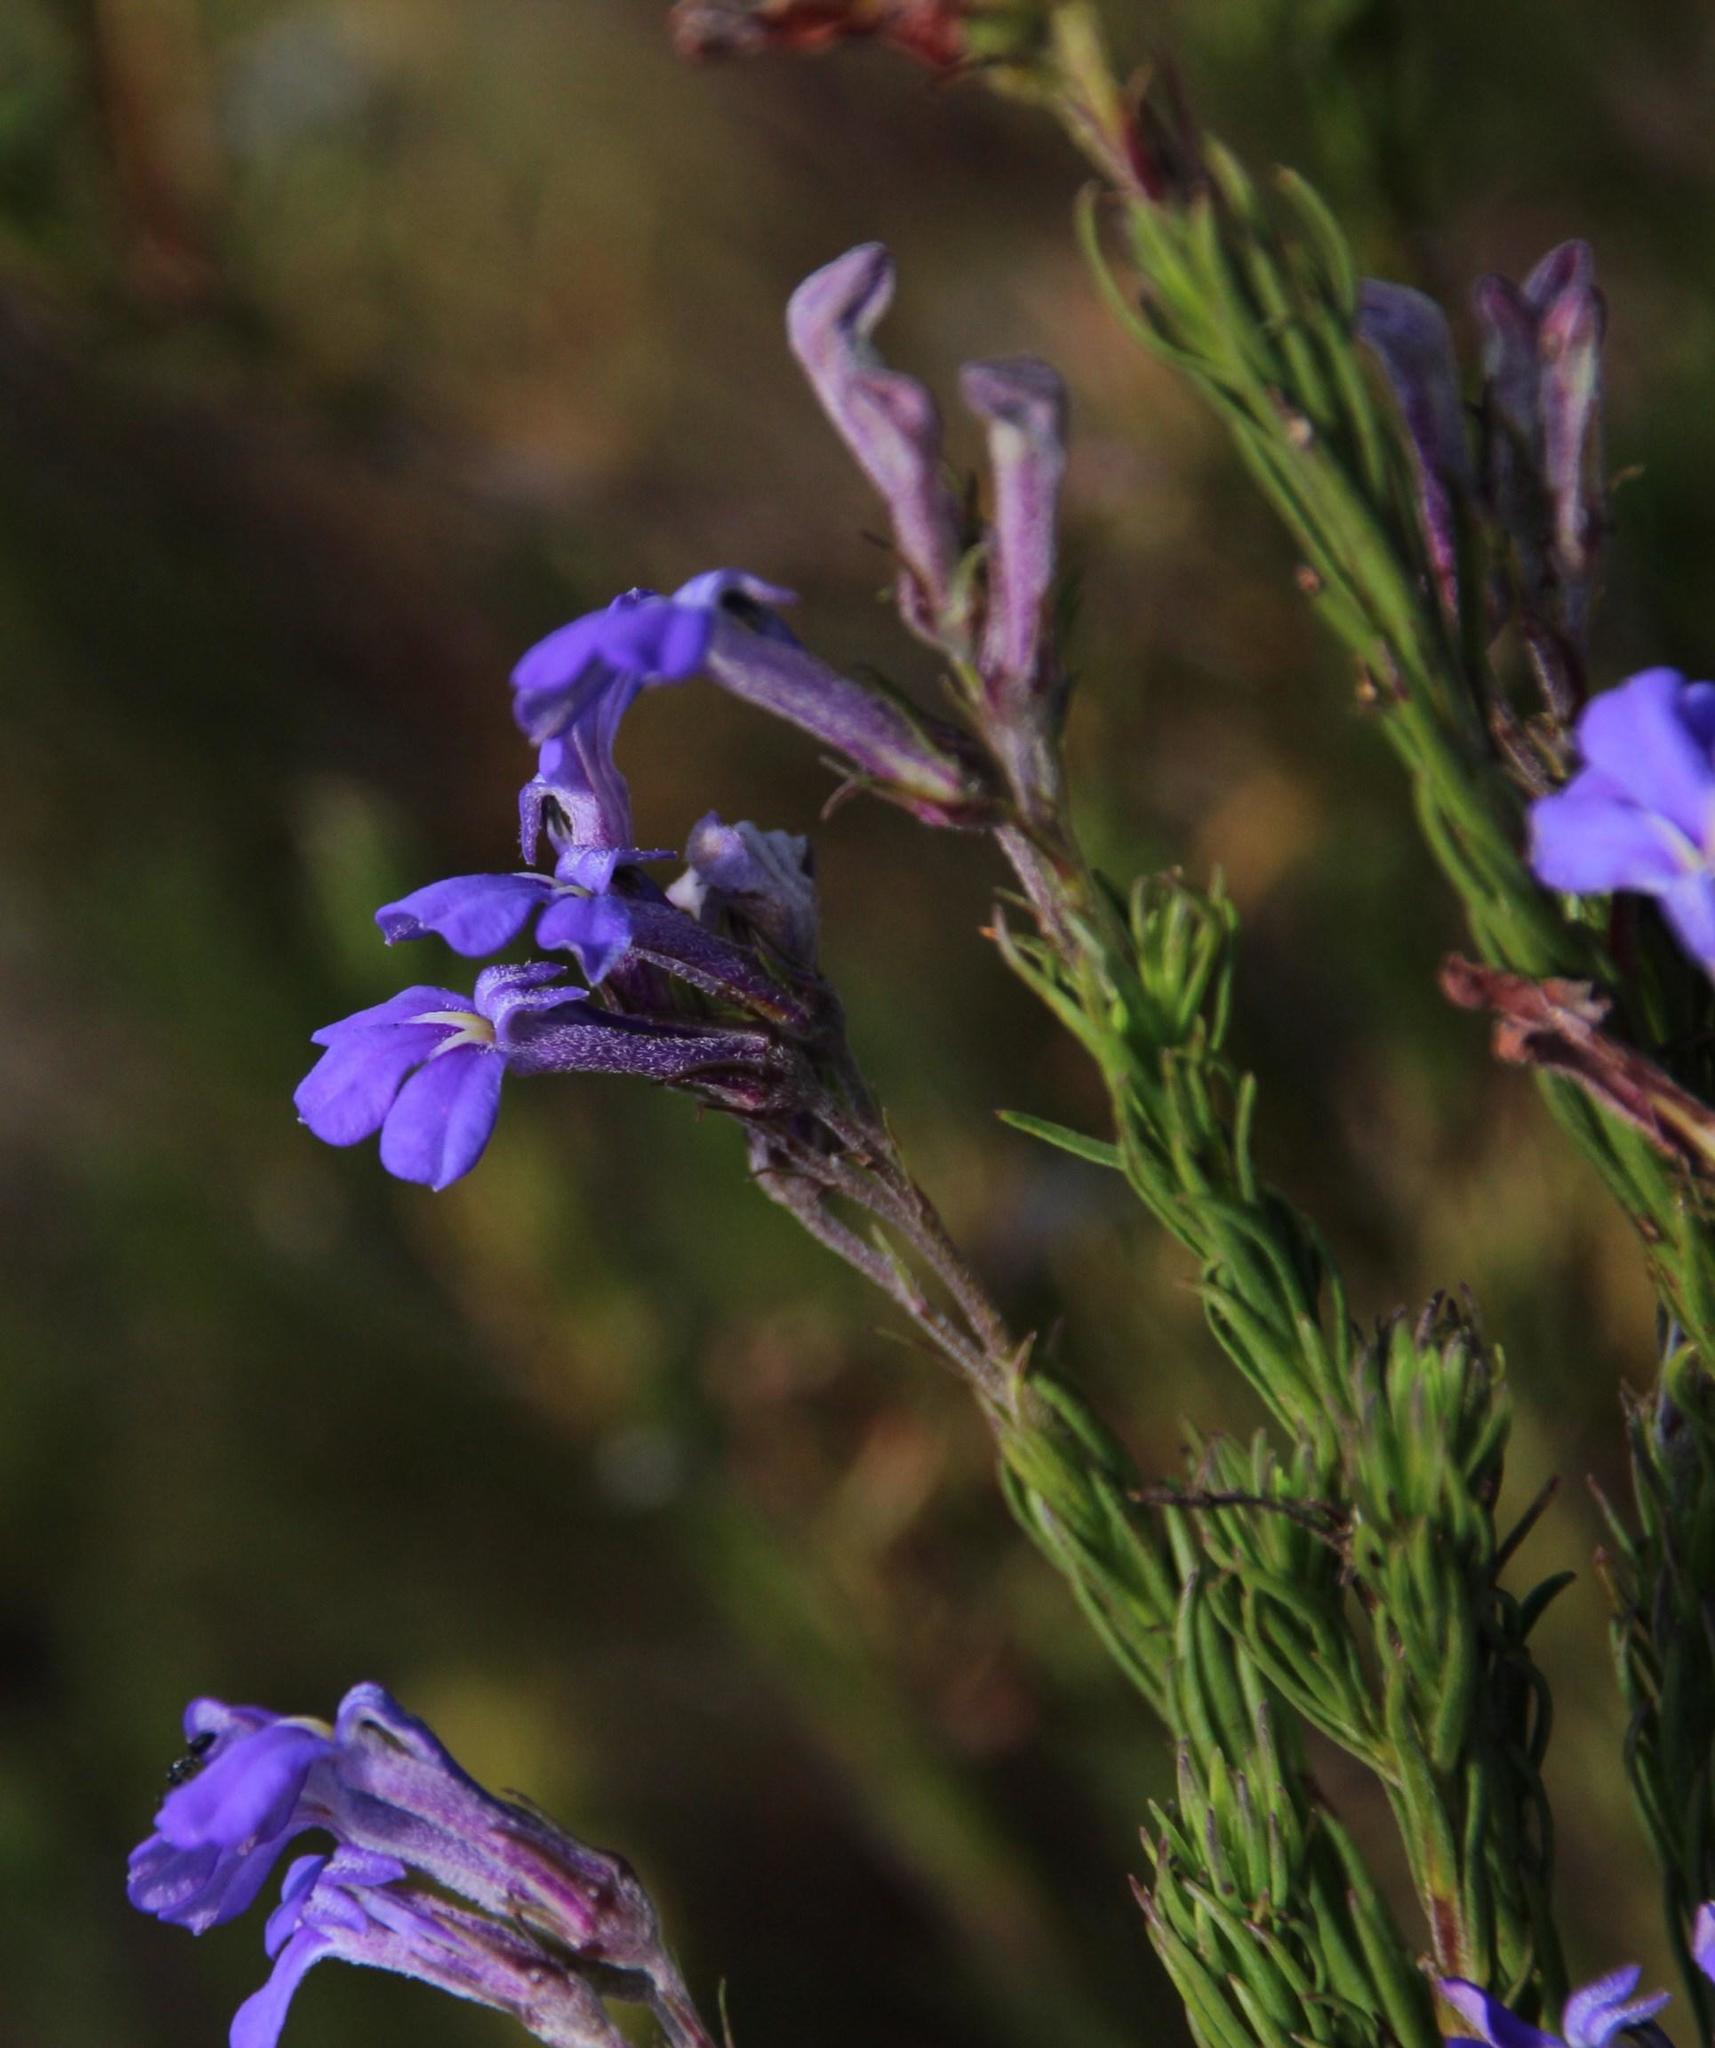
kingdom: Plantae
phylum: Tracheophyta
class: Magnoliopsida
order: Asterales
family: Campanulaceae
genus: Lobelia
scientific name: Lobelia pinifolia
